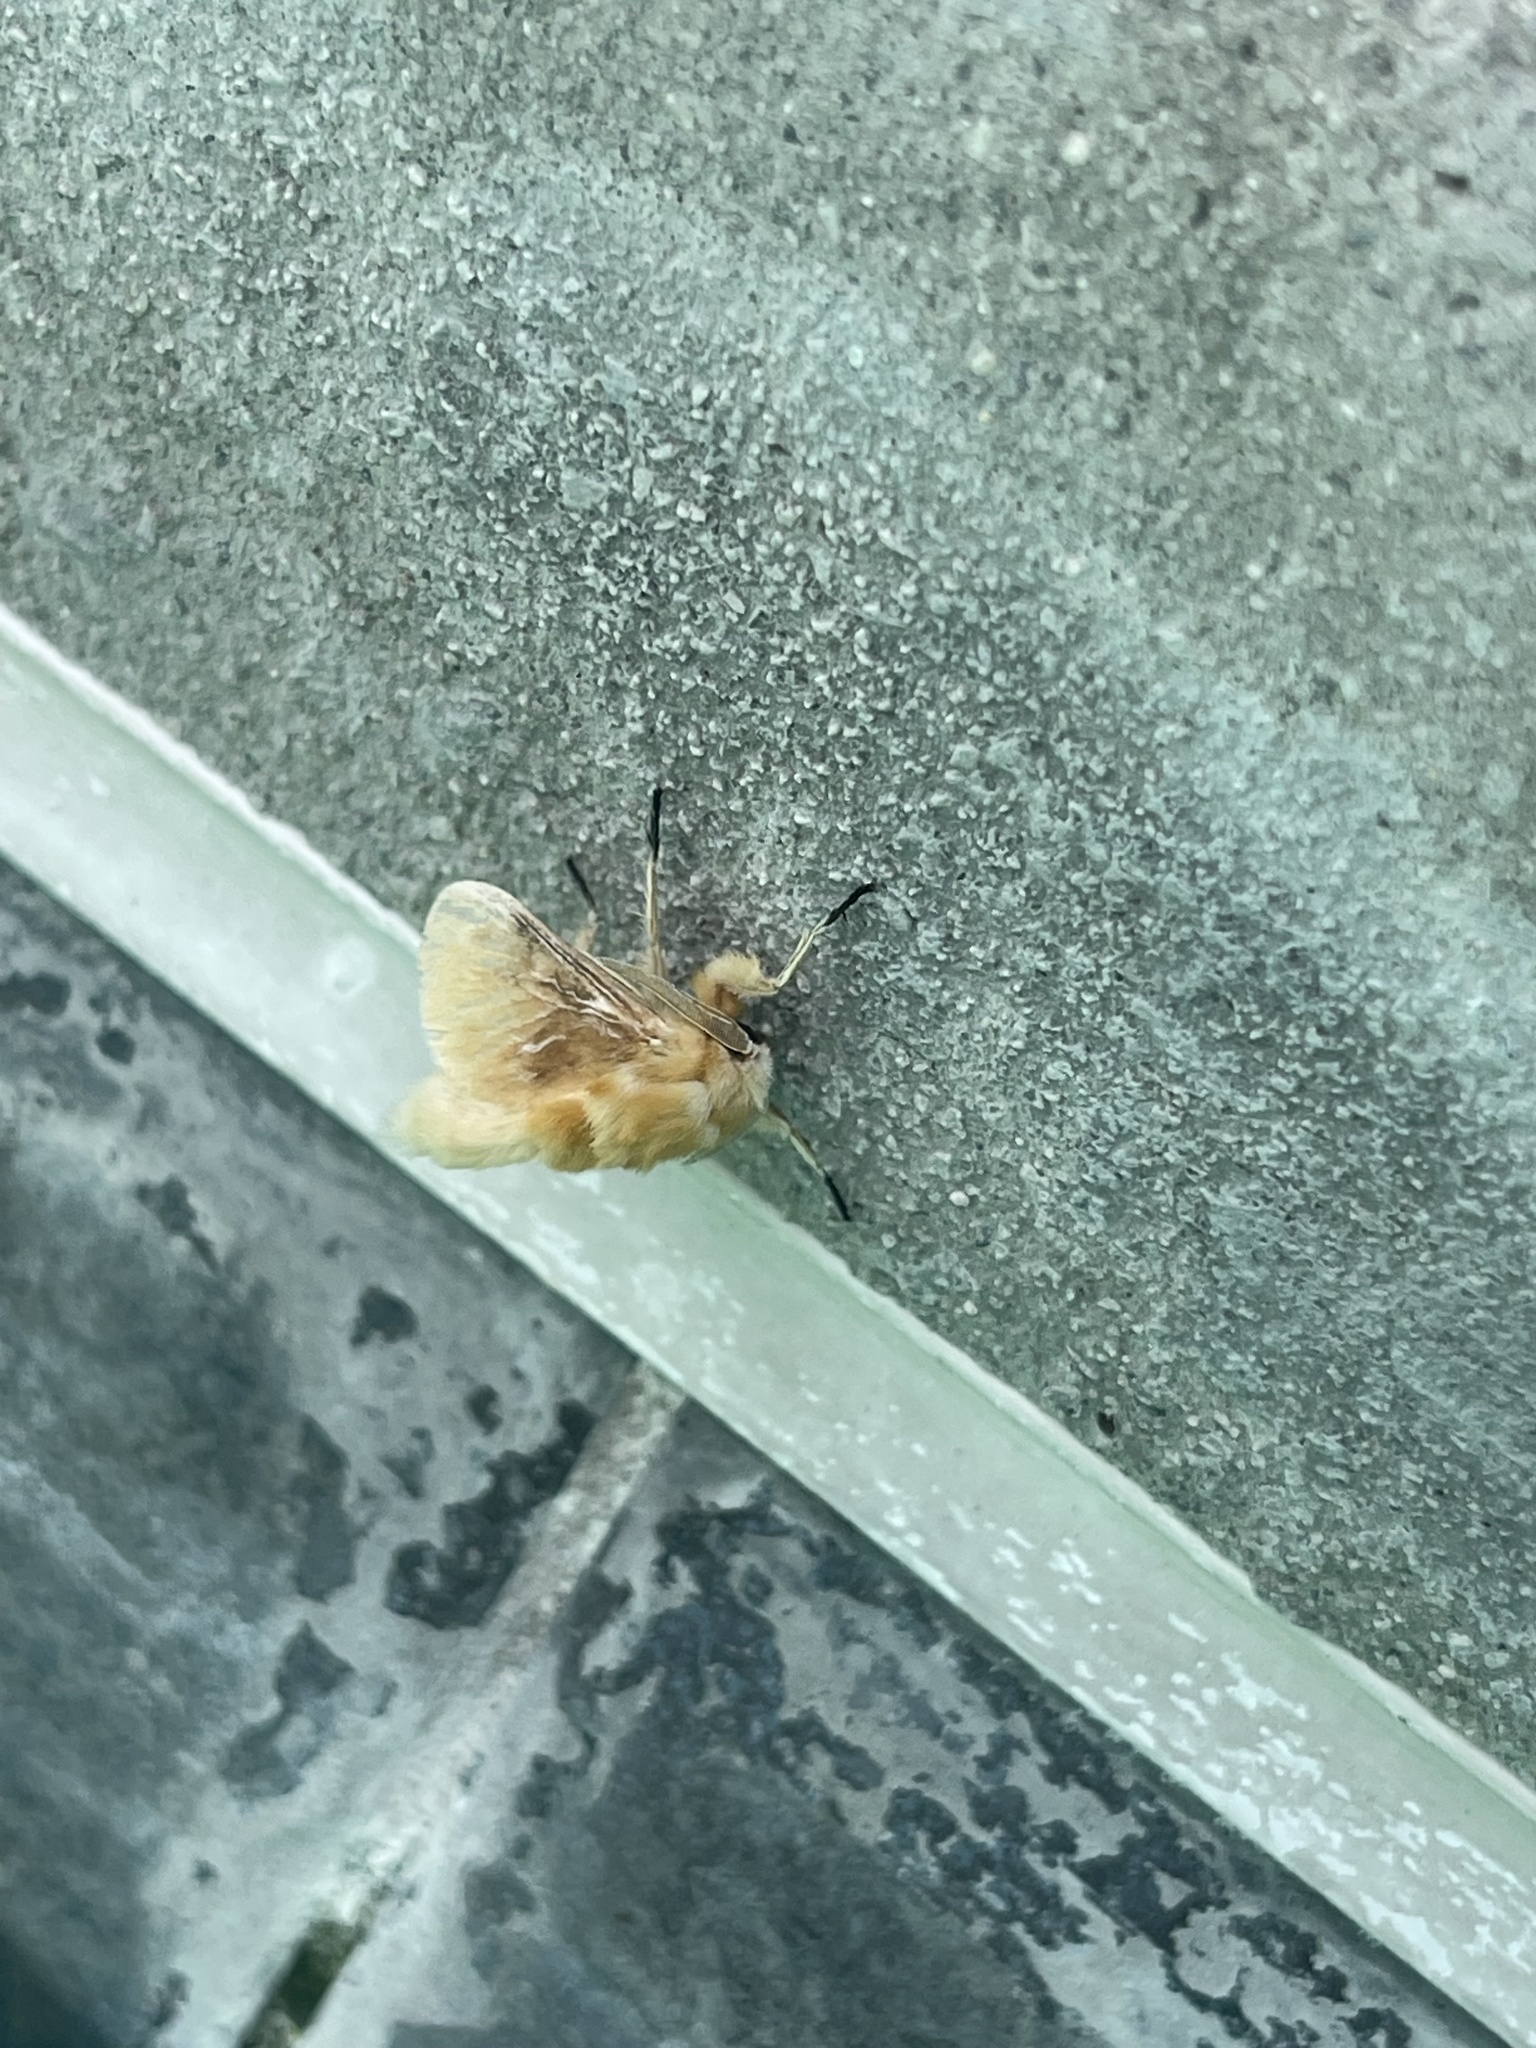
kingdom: Animalia
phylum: Arthropoda
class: Insecta
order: Lepidoptera
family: Megalopygidae
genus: Megalopyge
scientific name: Megalopyge opercularis
